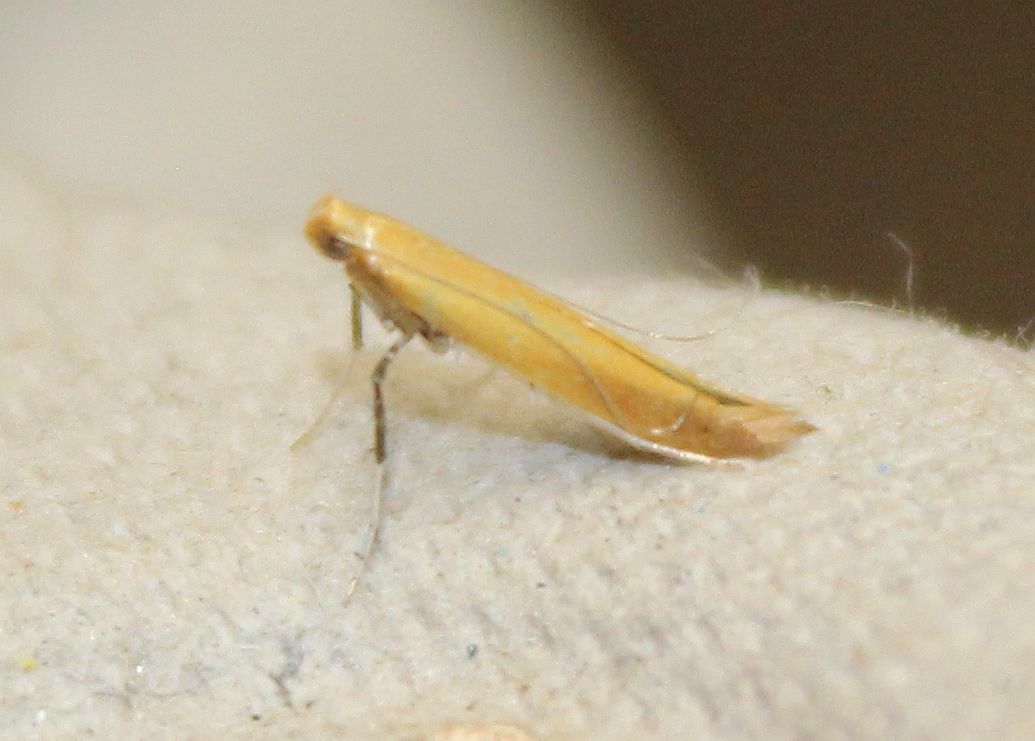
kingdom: Animalia
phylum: Arthropoda
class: Insecta
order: Lepidoptera
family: Gracillariidae
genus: Caloptilia
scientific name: Caloptilia rufipennella
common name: Small red slender
